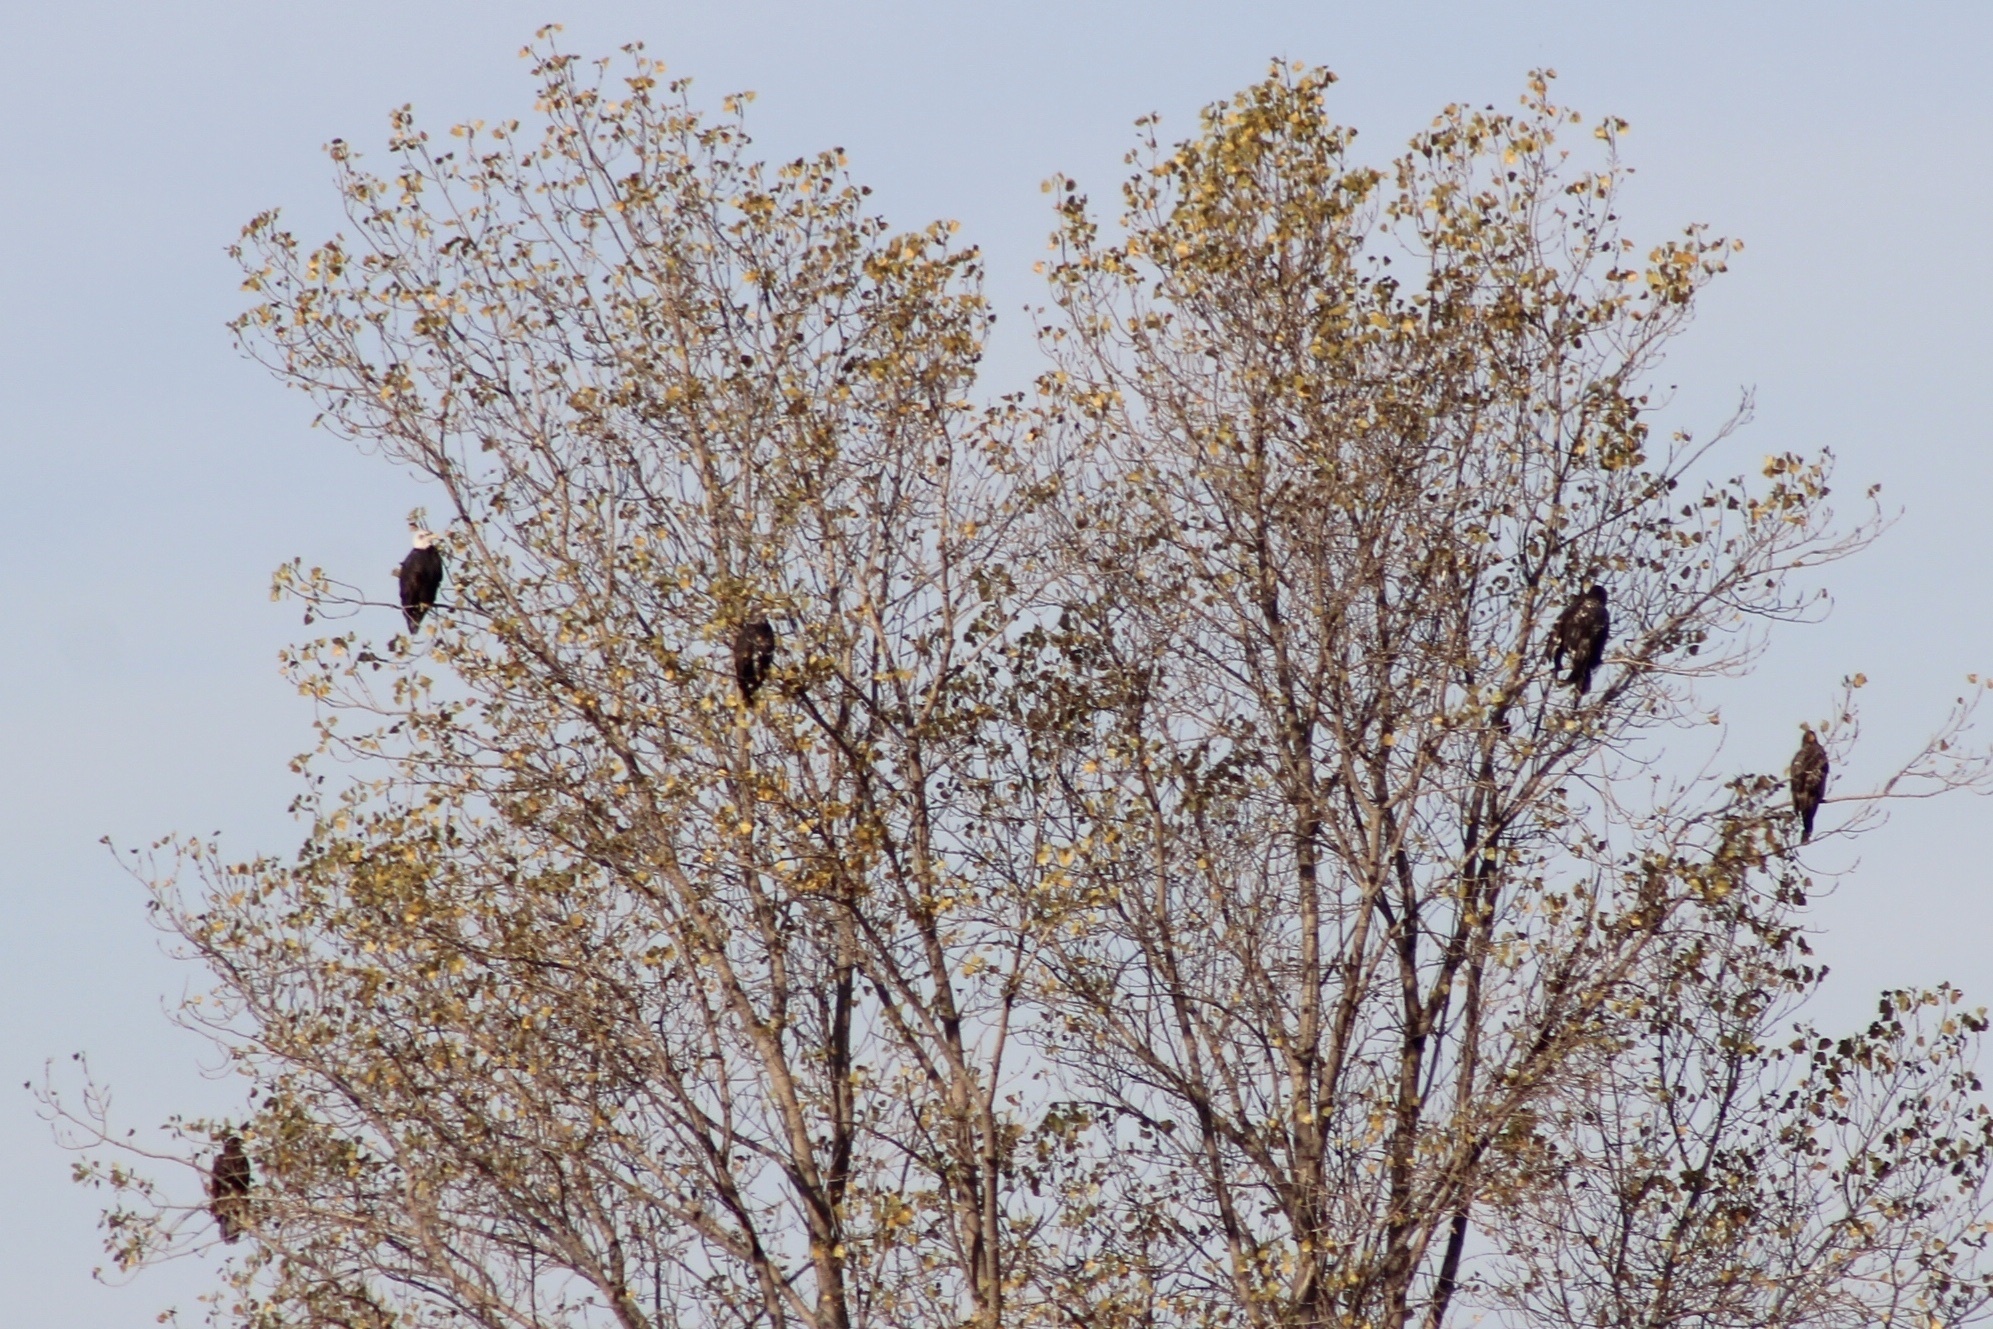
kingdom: Animalia
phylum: Chordata
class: Aves
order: Accipitriformes
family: Accipitridae
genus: Haliaeetus
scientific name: Haliaeetus leucocephalus
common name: Bald eagle
